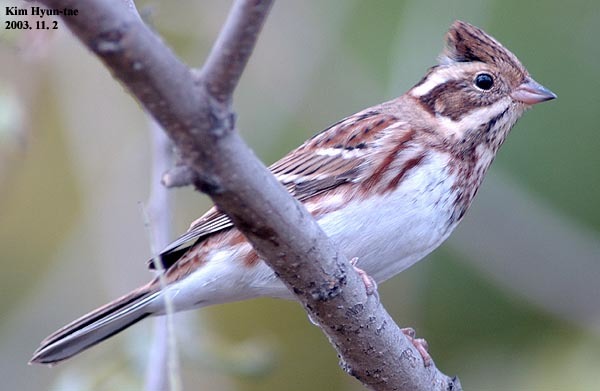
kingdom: Animalia
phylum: Chordata
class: Aves
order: Passeriformes
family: Emberizidae
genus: Emberiza
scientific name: Emberiza rustica
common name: Rustic bunting
